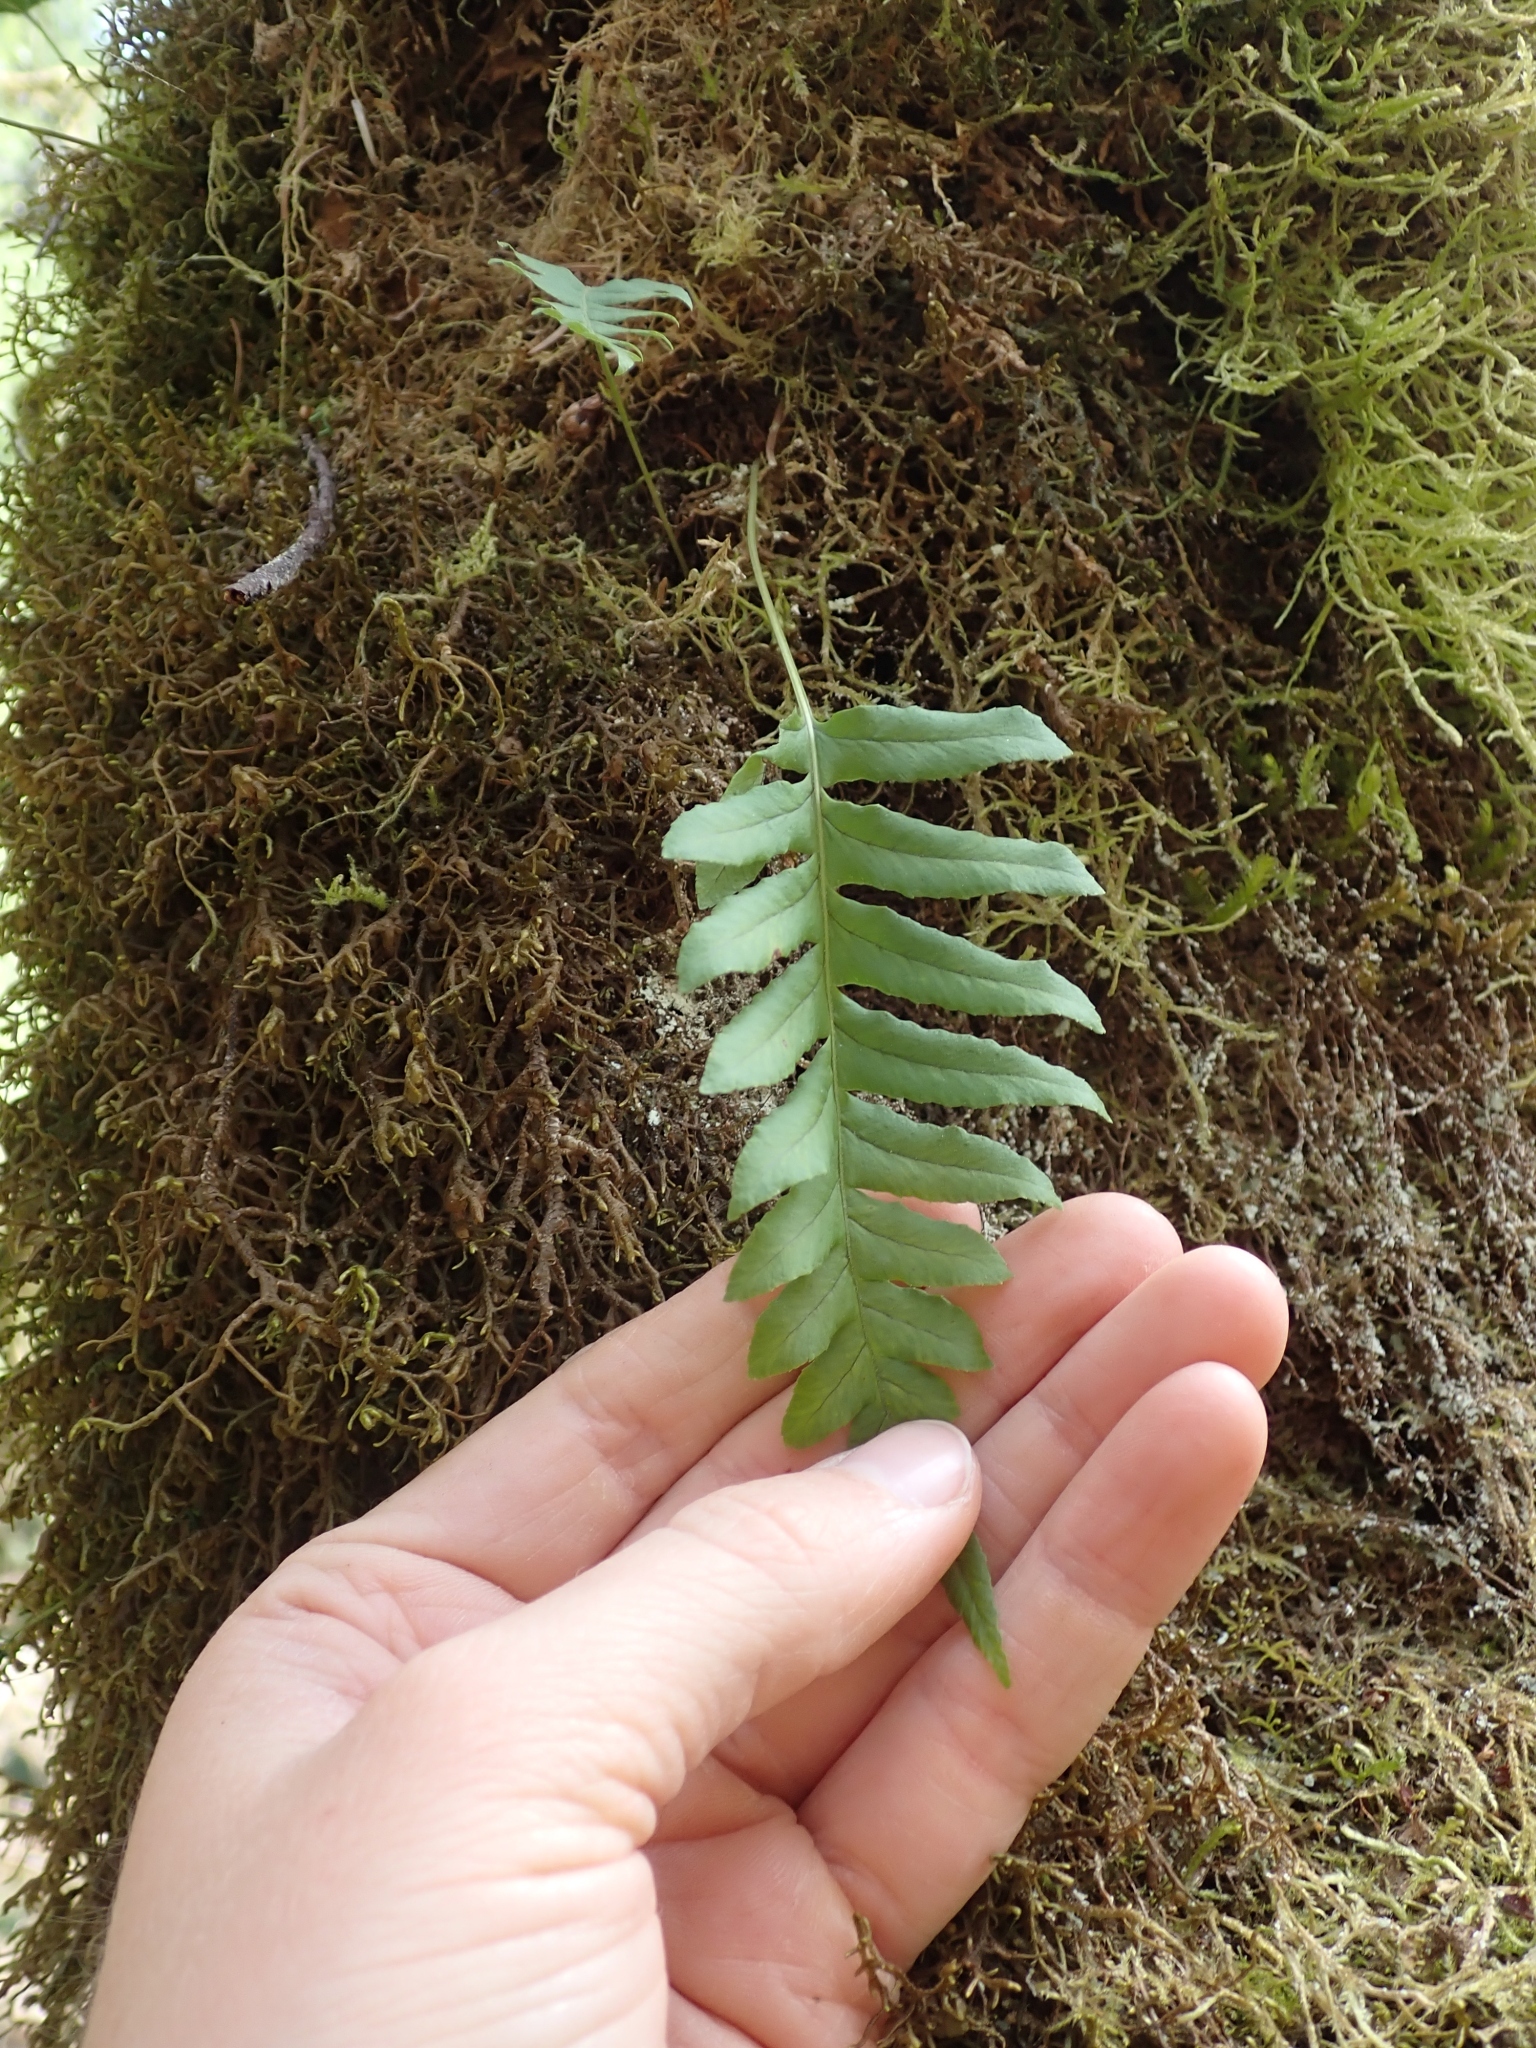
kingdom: Plantae
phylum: Tracheophyta
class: Polypodiopsida
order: Polypodiales
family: Polypodiaceae
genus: Polypodium
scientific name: Polypodium glycyrrhiza
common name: Licorice fern
